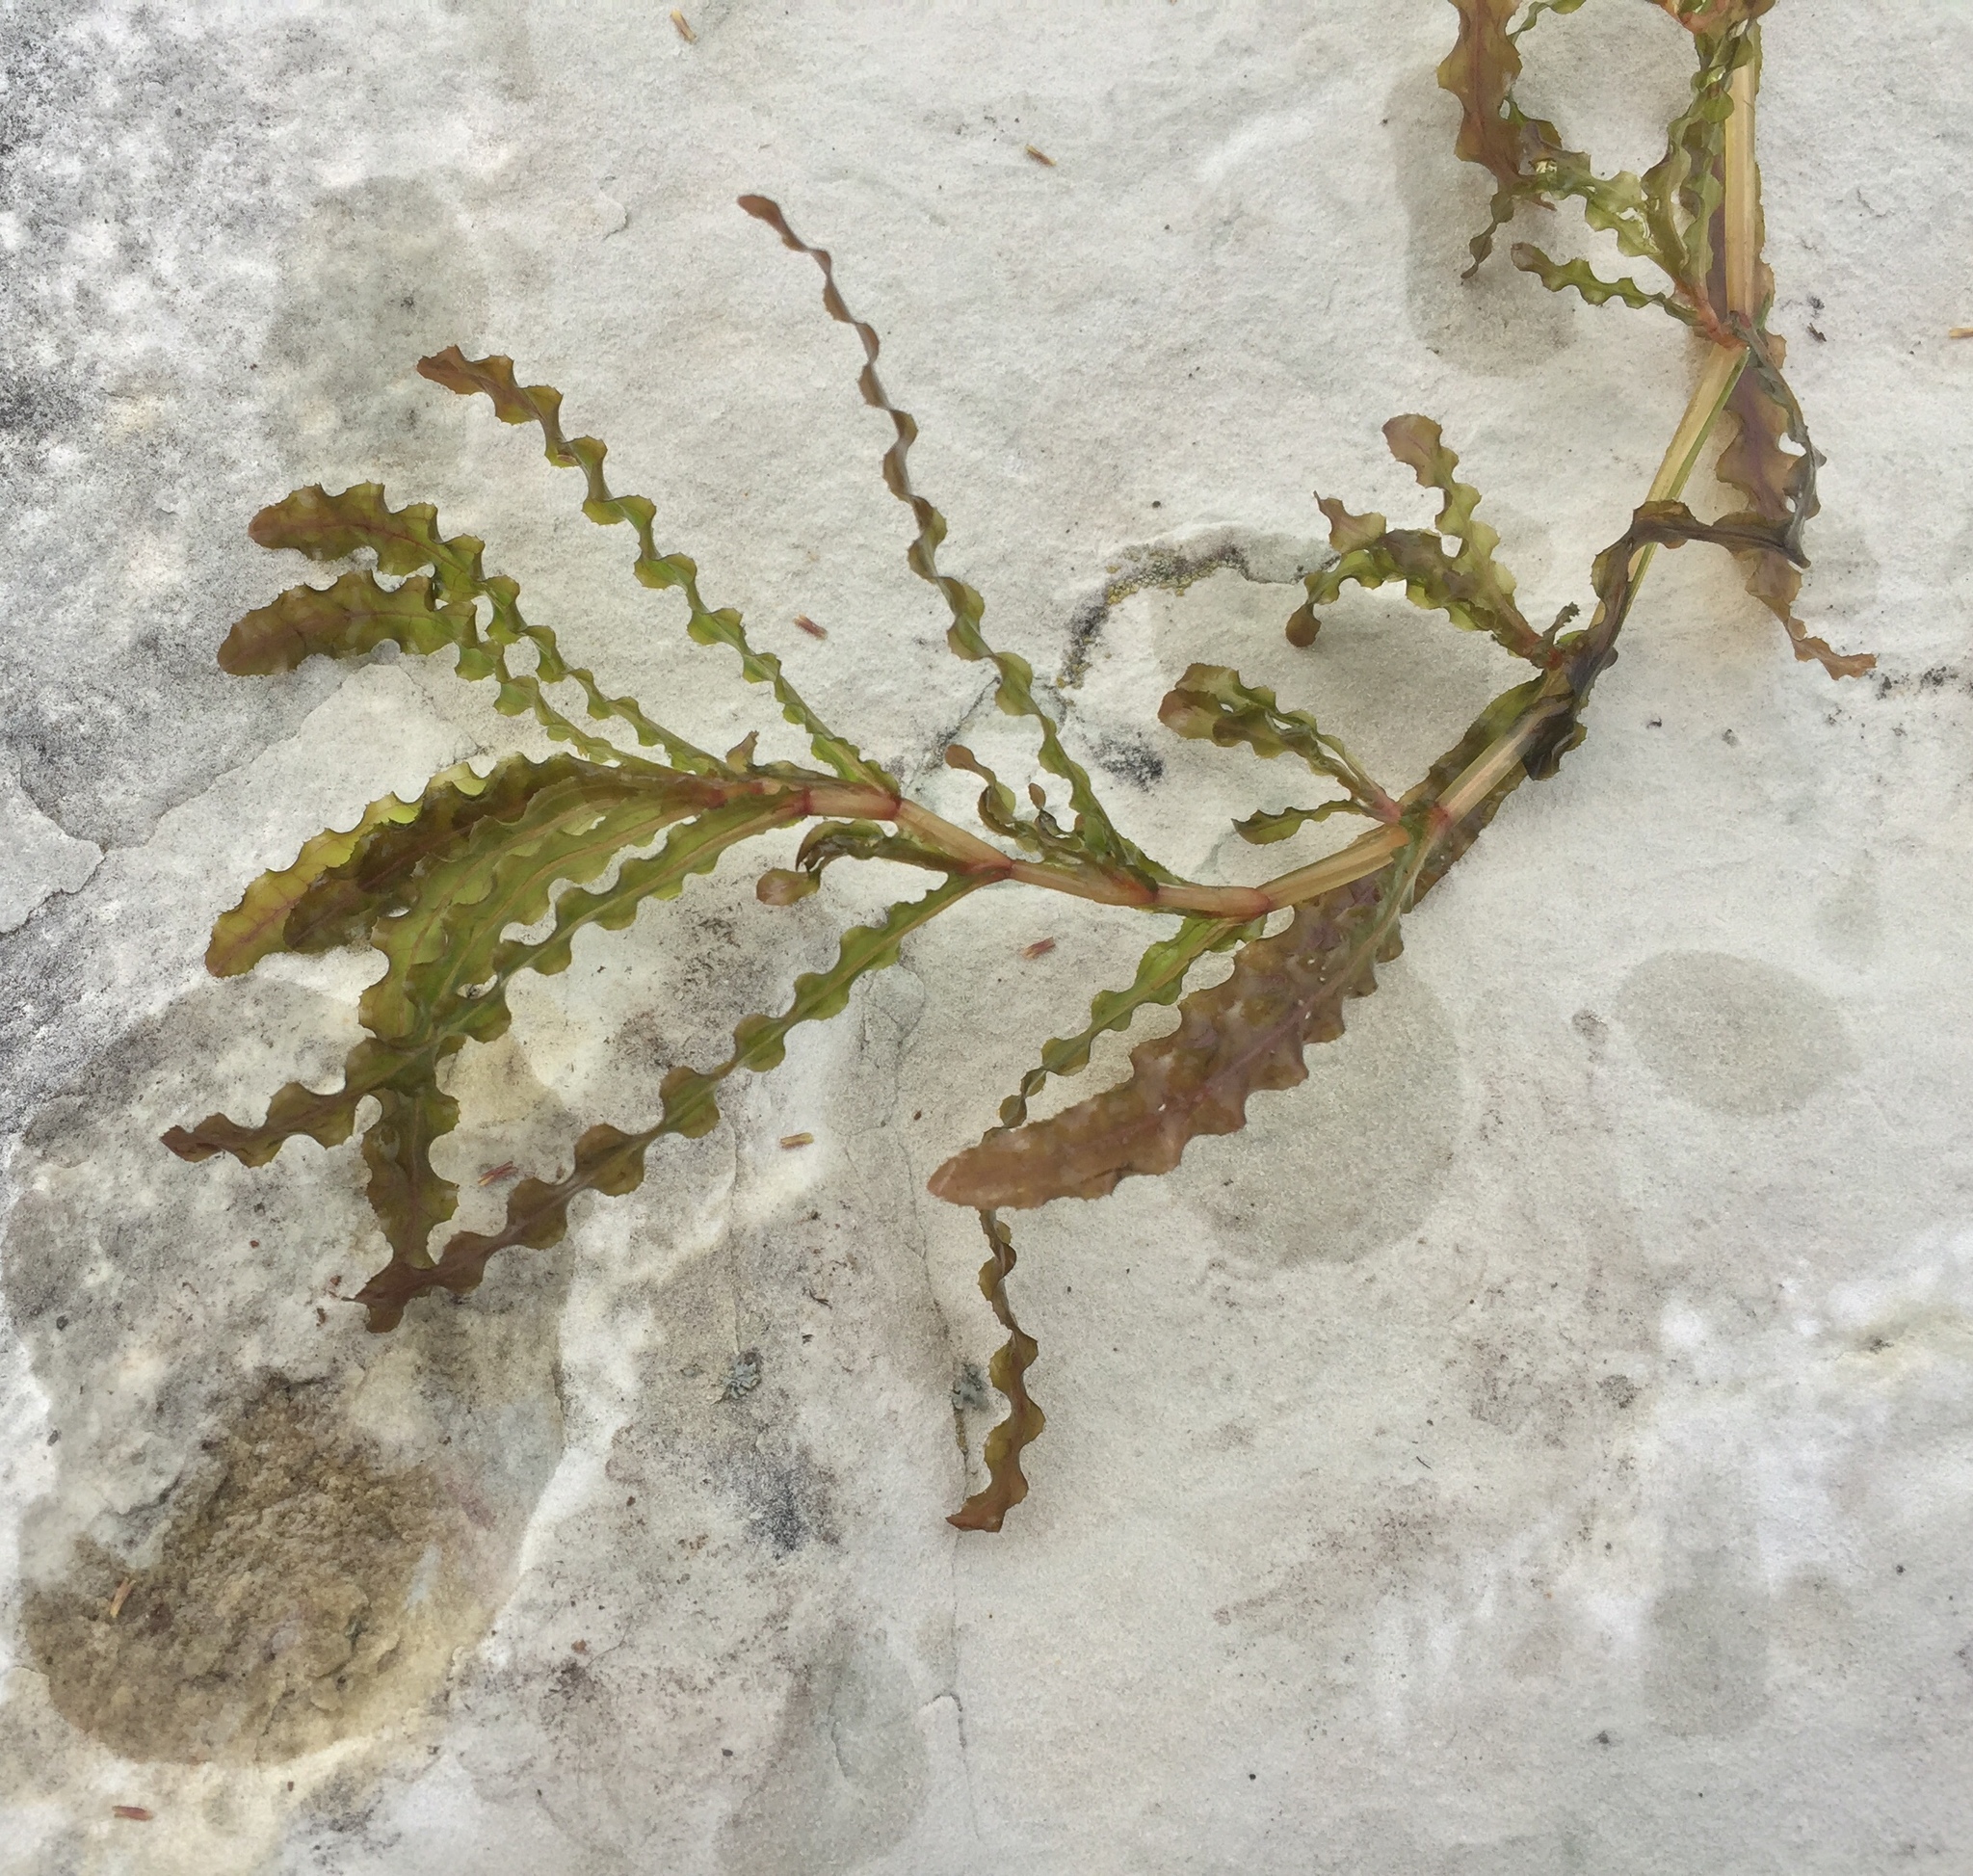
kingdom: Plantae
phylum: Tracheophyta
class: Liliopsida
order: Alismatales
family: Potamogetonaceae
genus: Potamogeton
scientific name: Potamogeton crispus
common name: Curled pondweed
